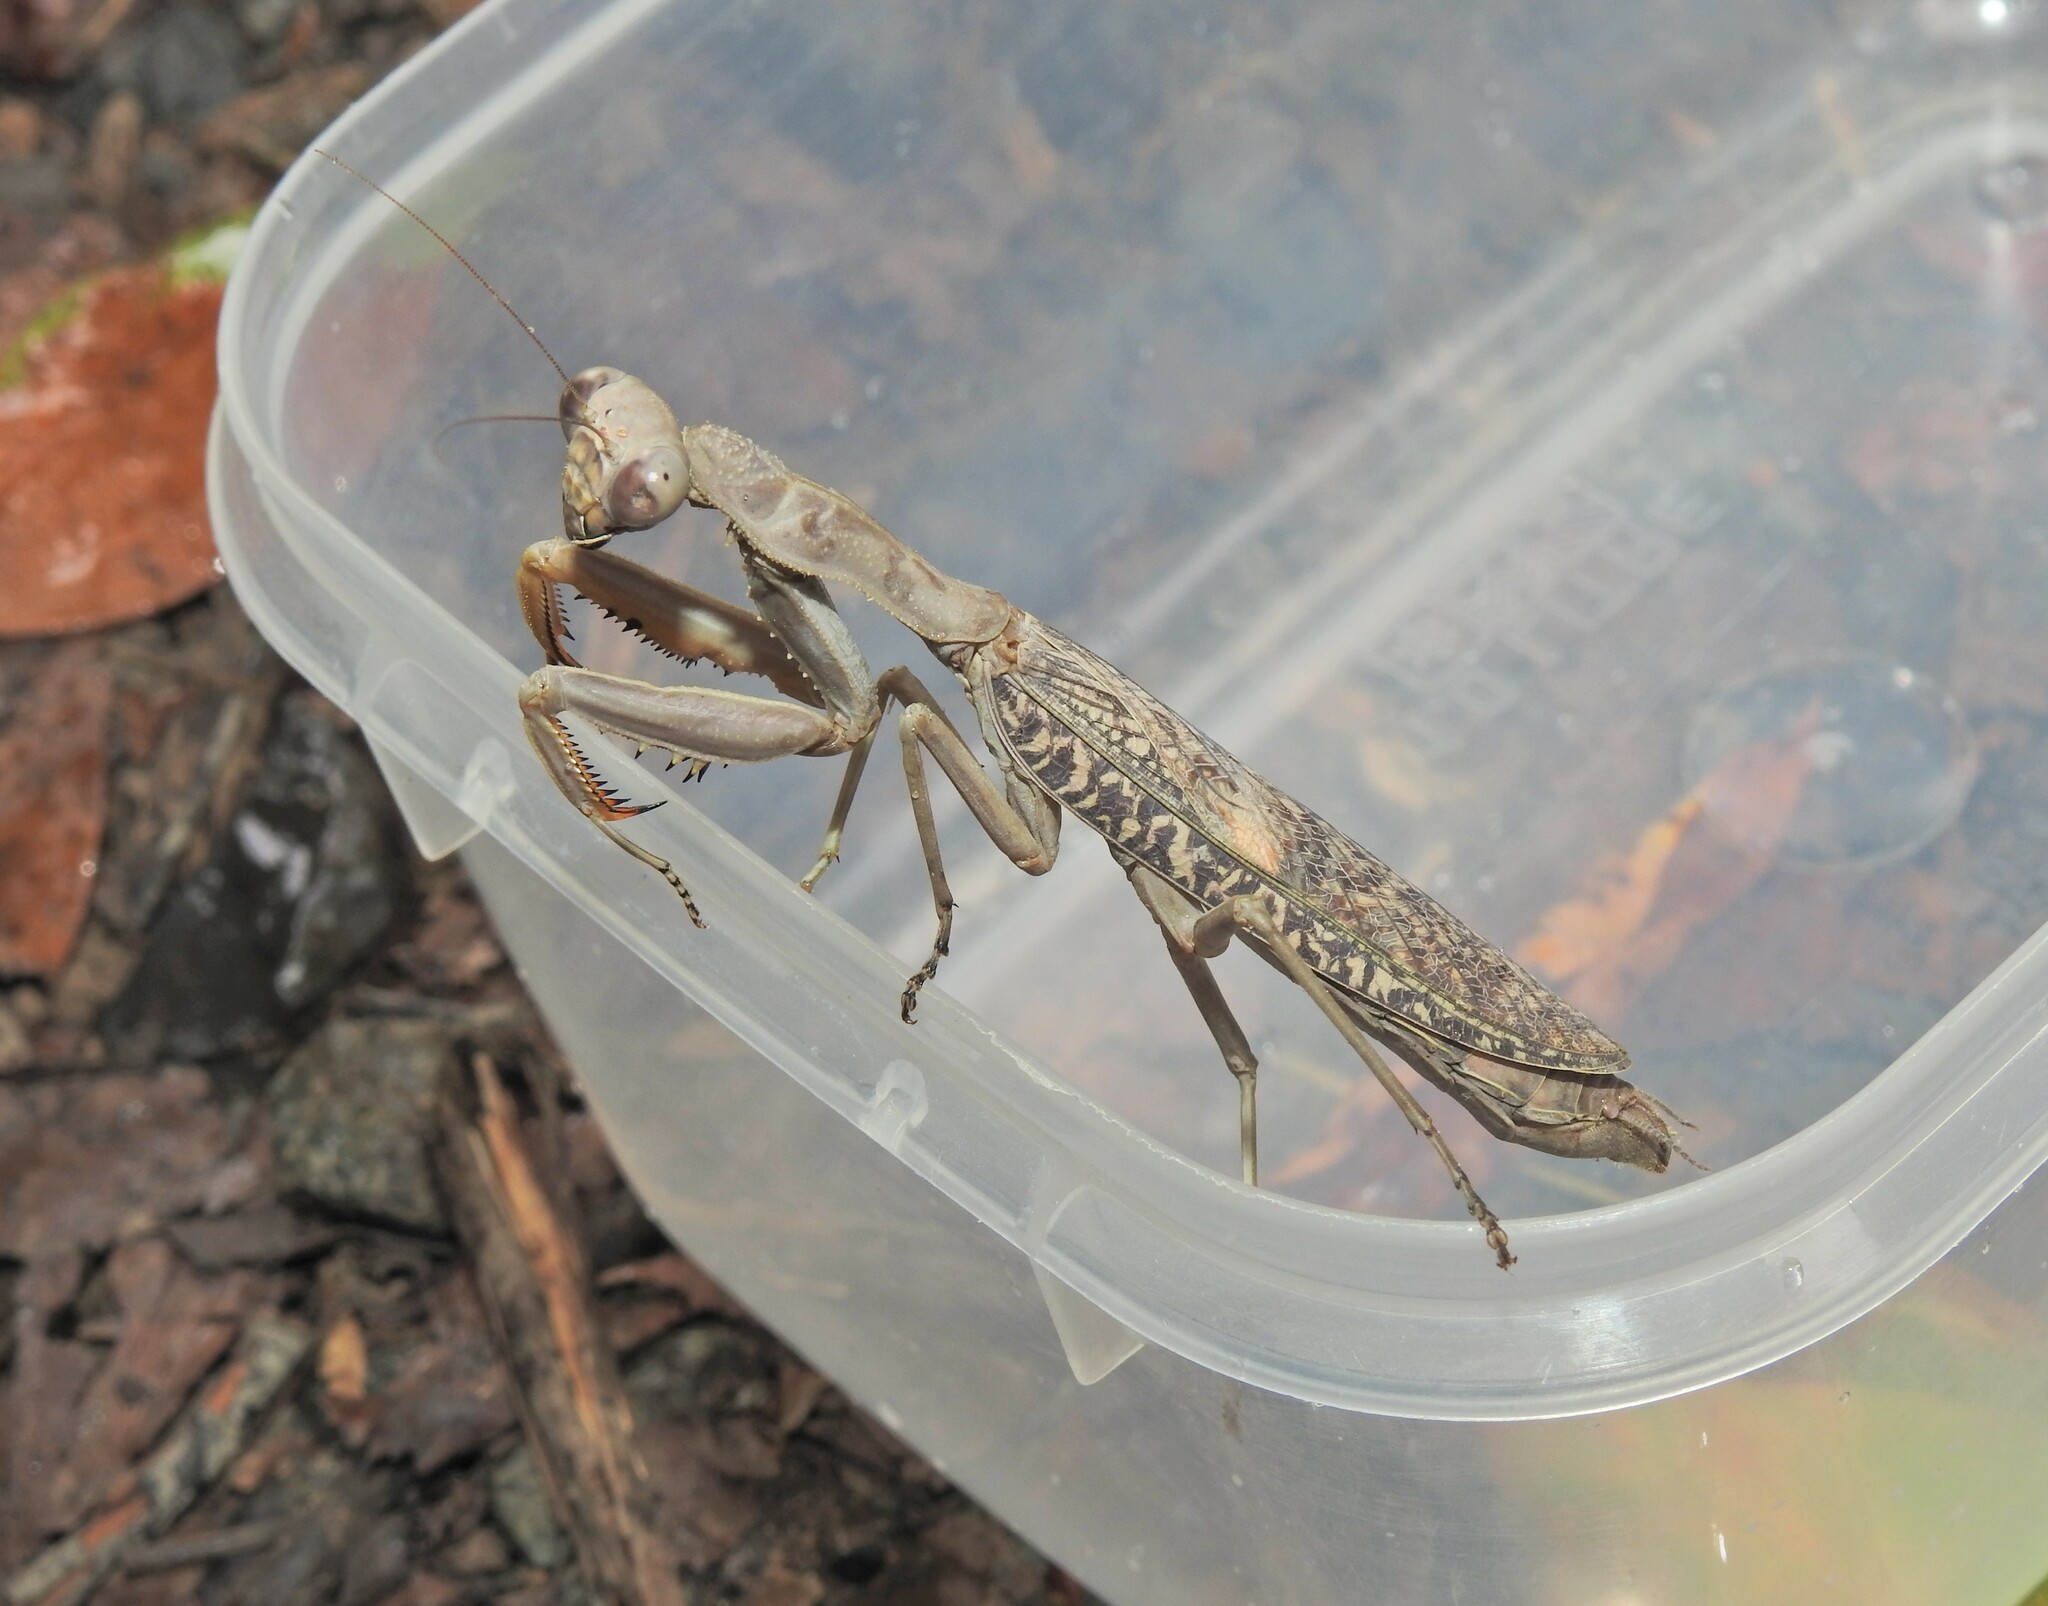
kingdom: Animalia
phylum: Arthropoda
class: Insecta
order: Mantodea
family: Mantidae
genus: Sphodropoda
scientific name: Sphodropoda tristis
